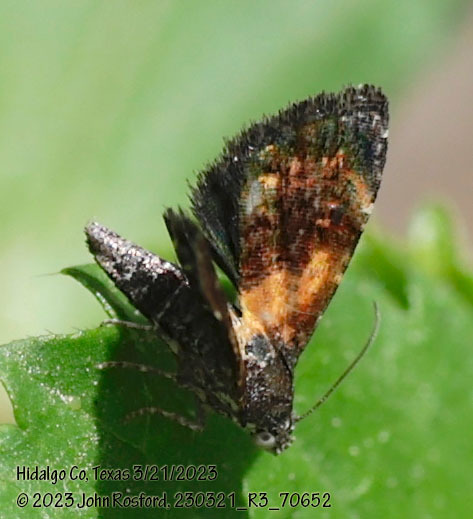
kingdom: Animalia
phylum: Arthropoda
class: Insecta
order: Lepidoptera
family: Noctuidae
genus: Tripudia
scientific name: Tripudia flavofasciata
